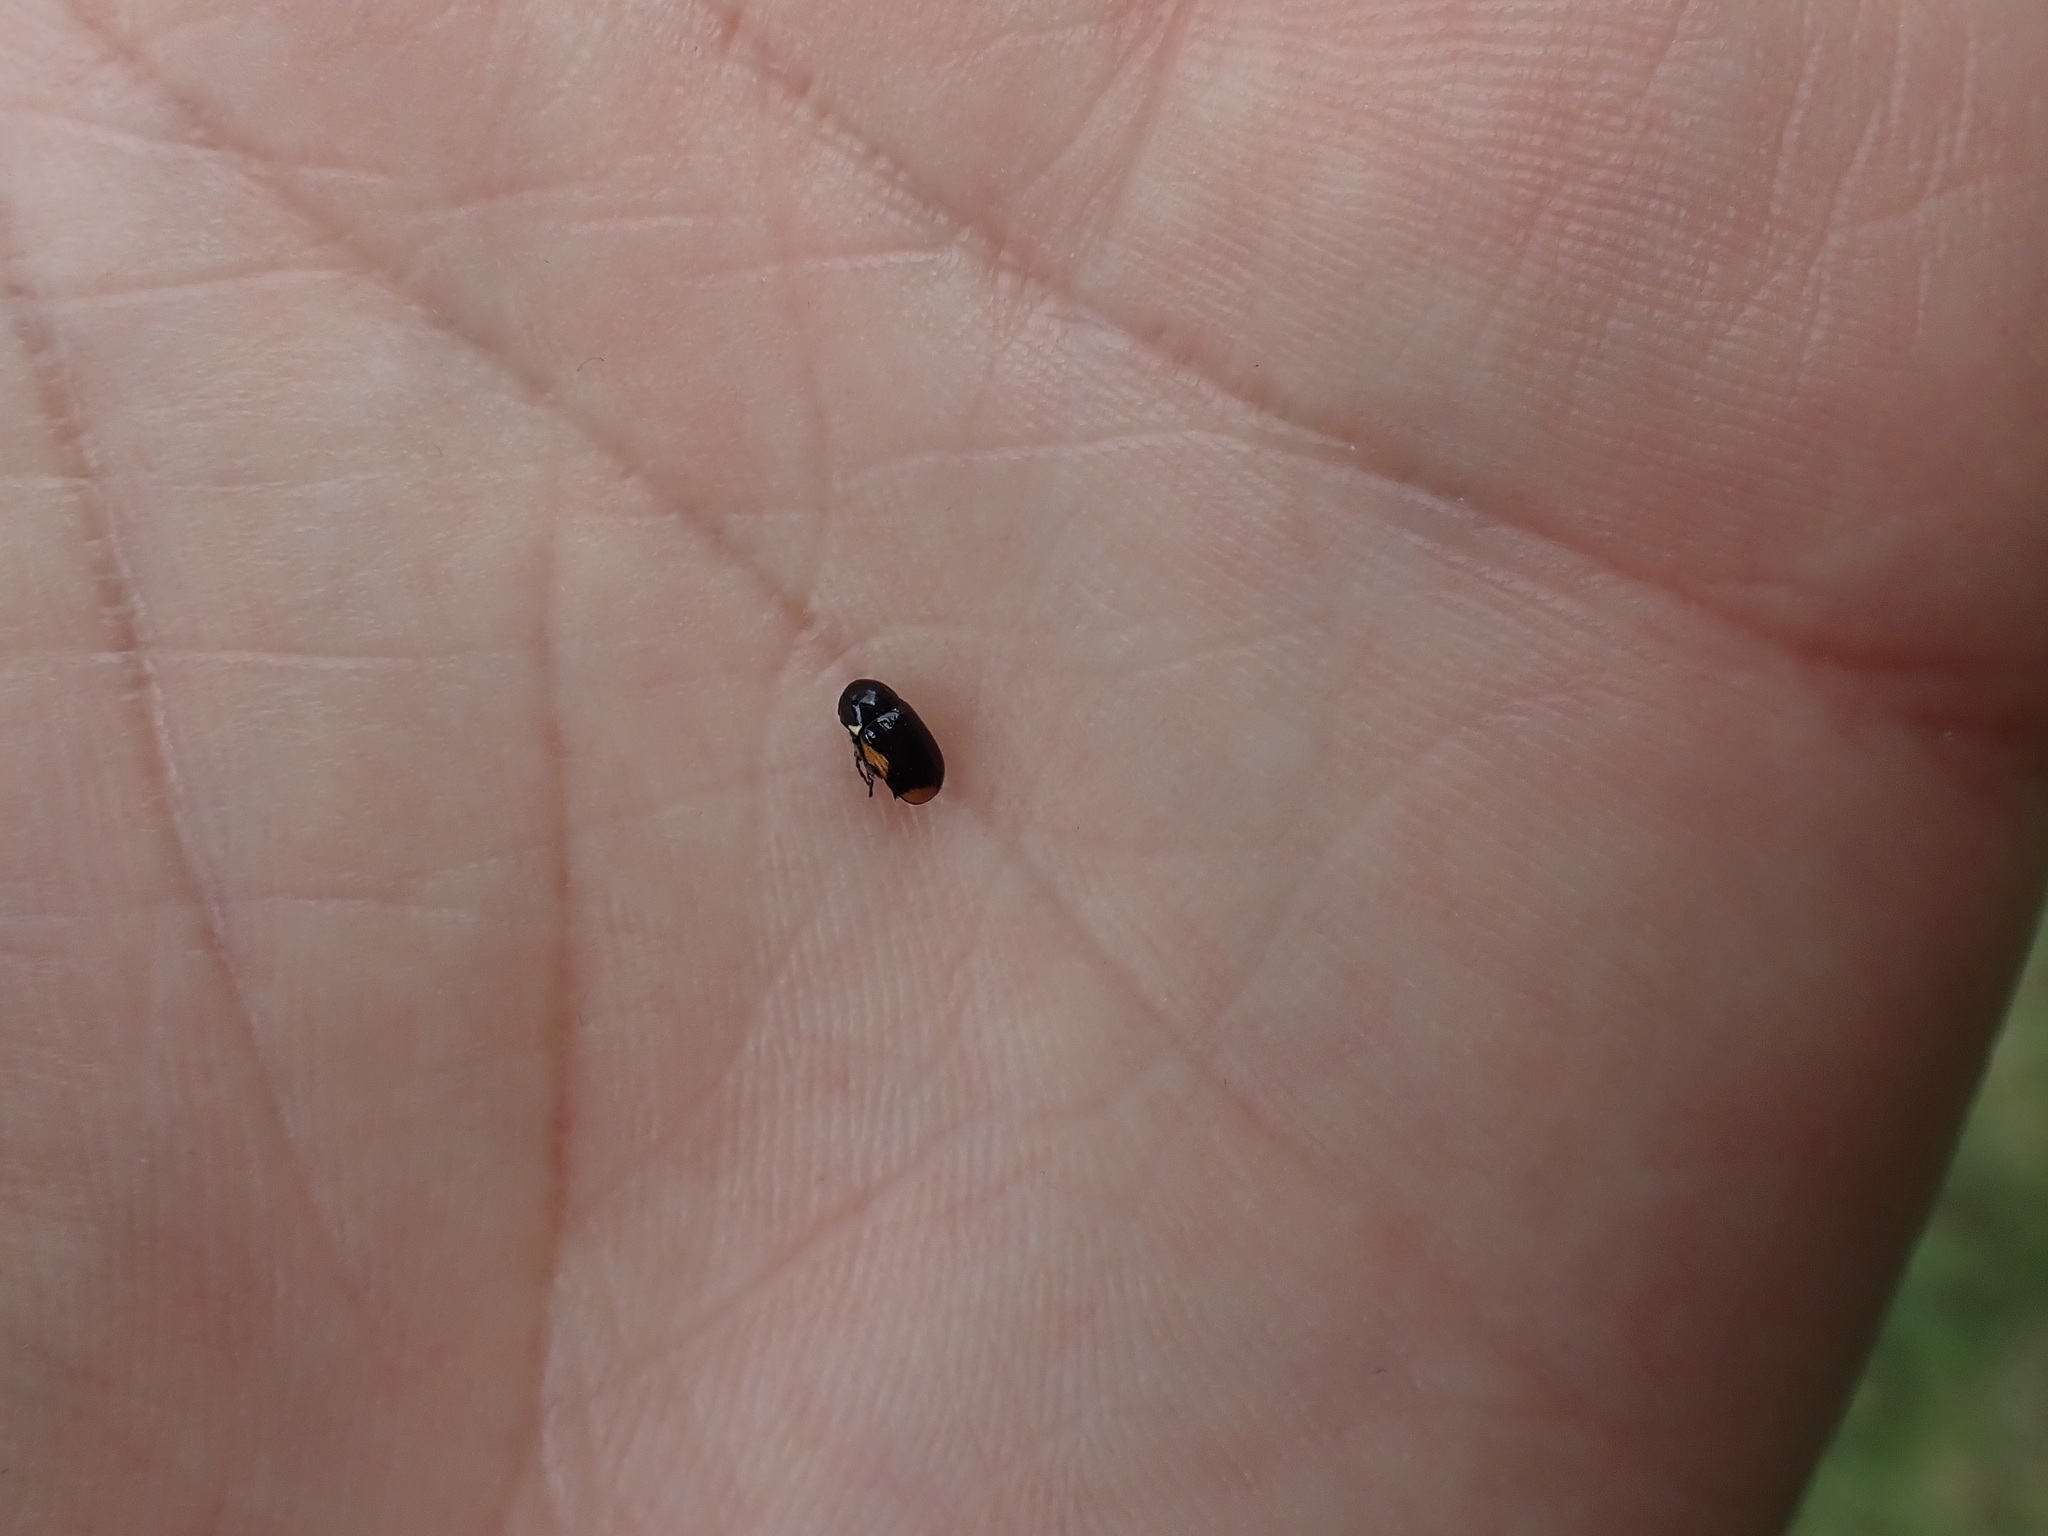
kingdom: Animalia
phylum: Arthropoda
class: Insecta
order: Coleoptera
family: Chrysomelidae
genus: Cryptocephalus
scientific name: Cryptocephalus moraei
